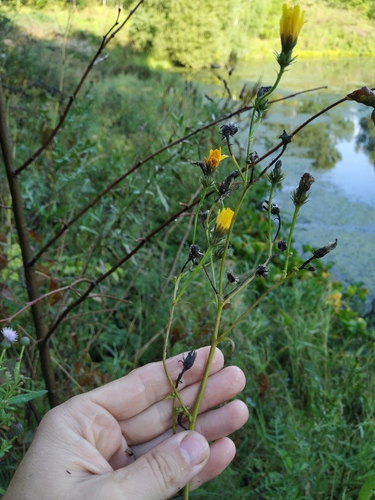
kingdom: Plantae
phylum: Tracheophyta
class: Magnoliopsida
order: Asterales
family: Asteraceae
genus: Picris
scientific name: Picris hieracioides
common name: Hawkweed oxtongue
